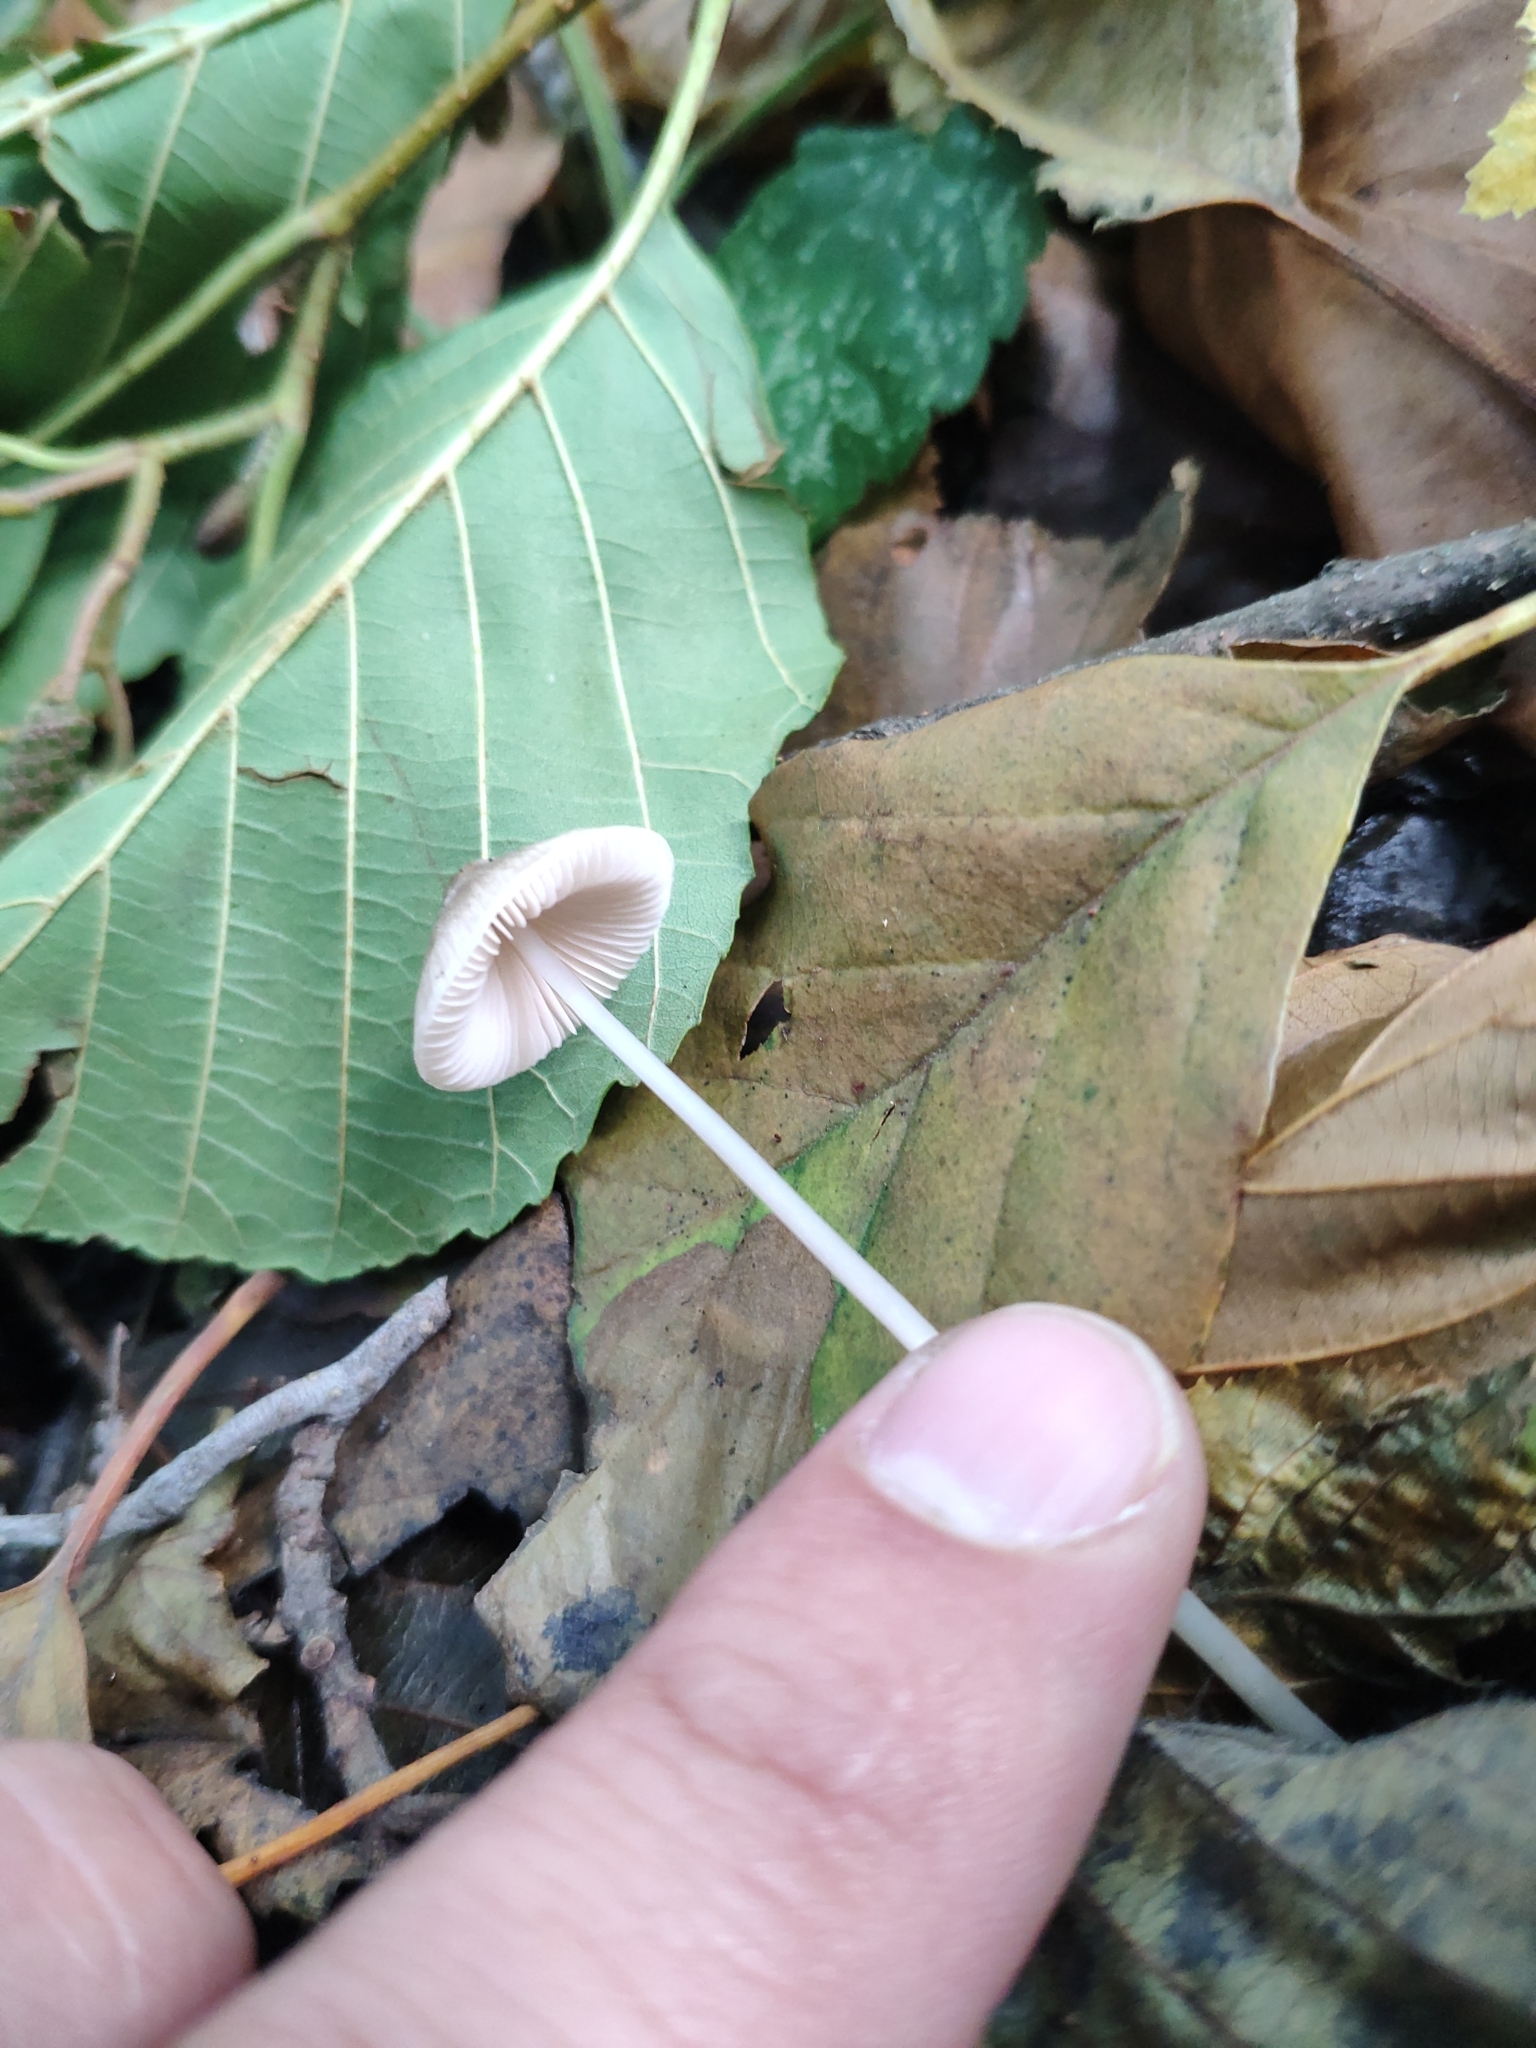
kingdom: Fungi
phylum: Basidiomycota
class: Agaricomycetes
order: Agaricales
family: Mycenaceae
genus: Mycena
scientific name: Mycena vitilis
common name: Snapping bonnet
